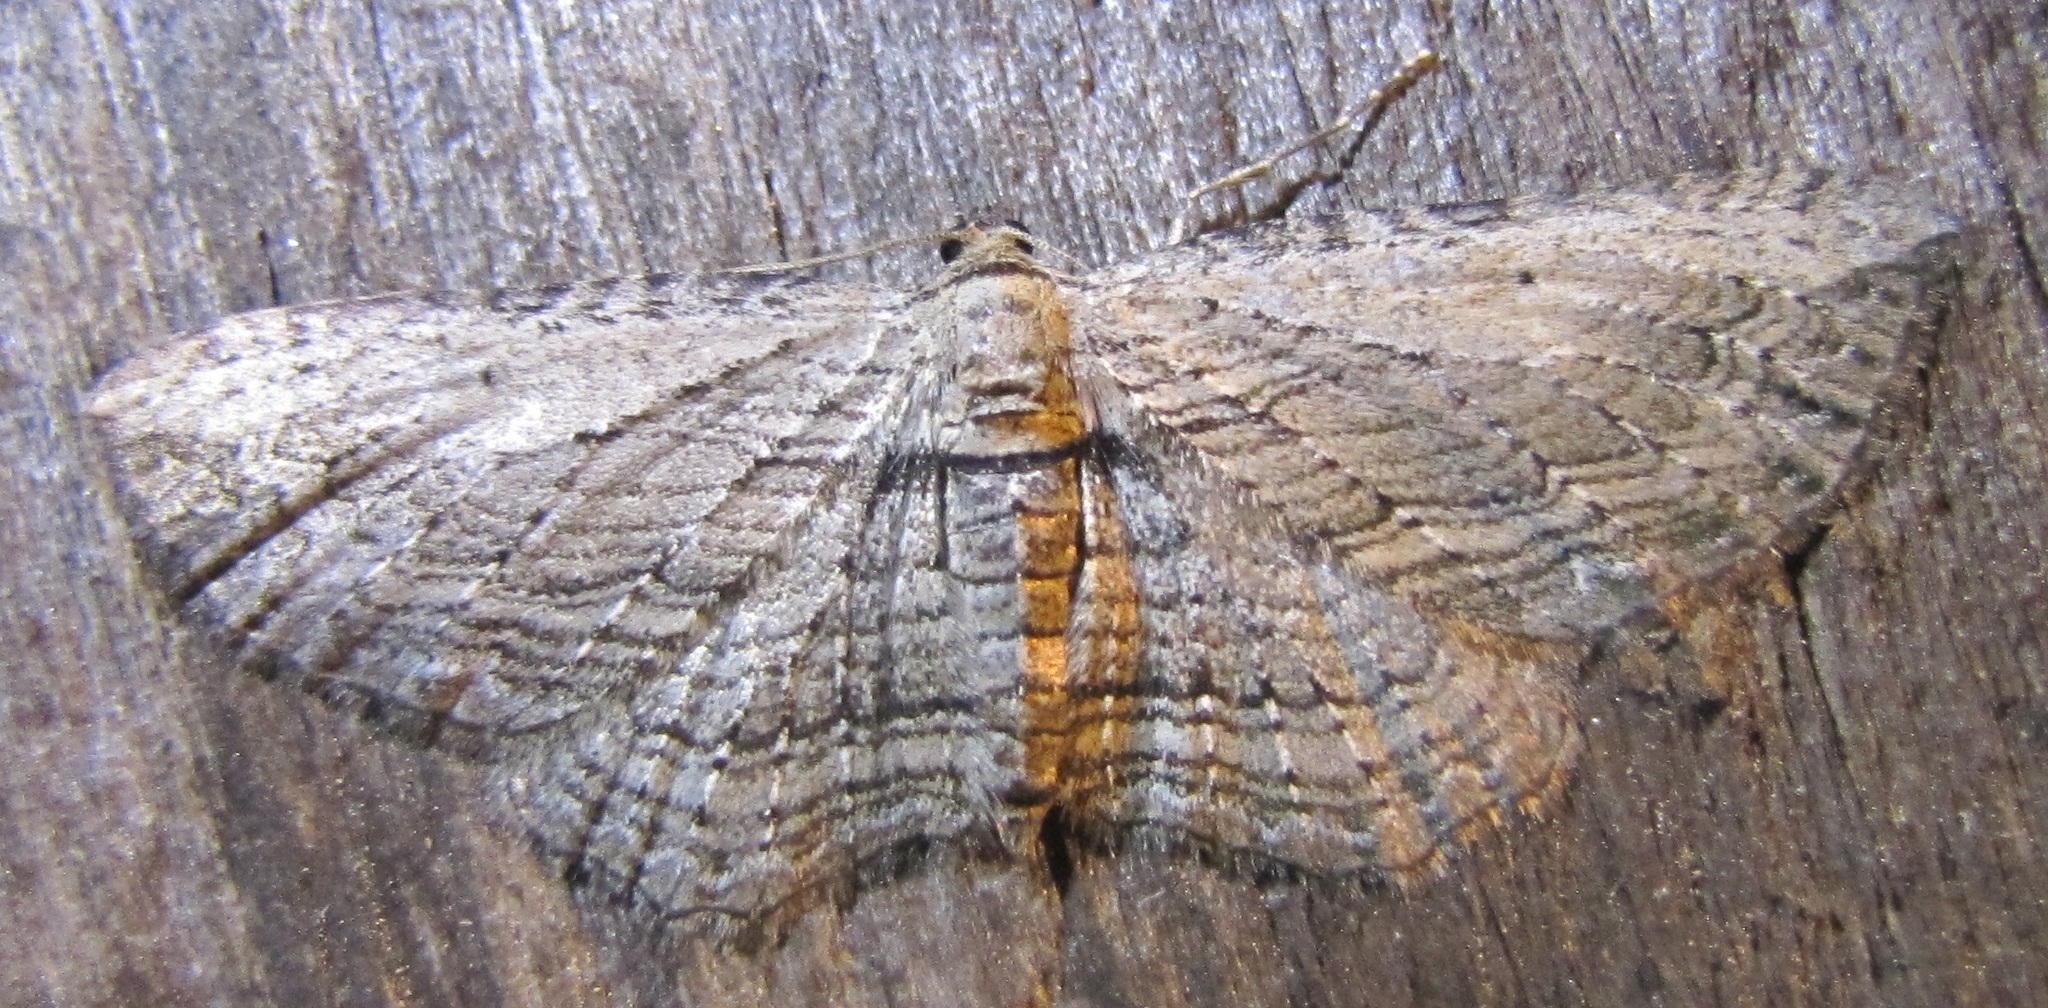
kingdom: Animalia
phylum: Arthropoda
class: Insecta
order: Lepidoptera
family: Geometridae
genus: Horisme
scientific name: Horisme intestinata
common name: Brown bark carpet
